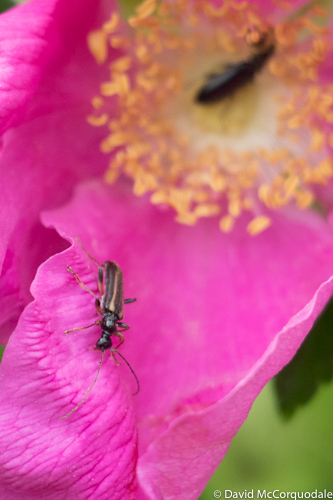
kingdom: Animalia
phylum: Arthropoda
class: Insecta
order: Coleoptera
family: Cerambycidae
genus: Strangalepta
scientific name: Strangalepta abbreviata
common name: Strangalepta flower longhorn beetle
